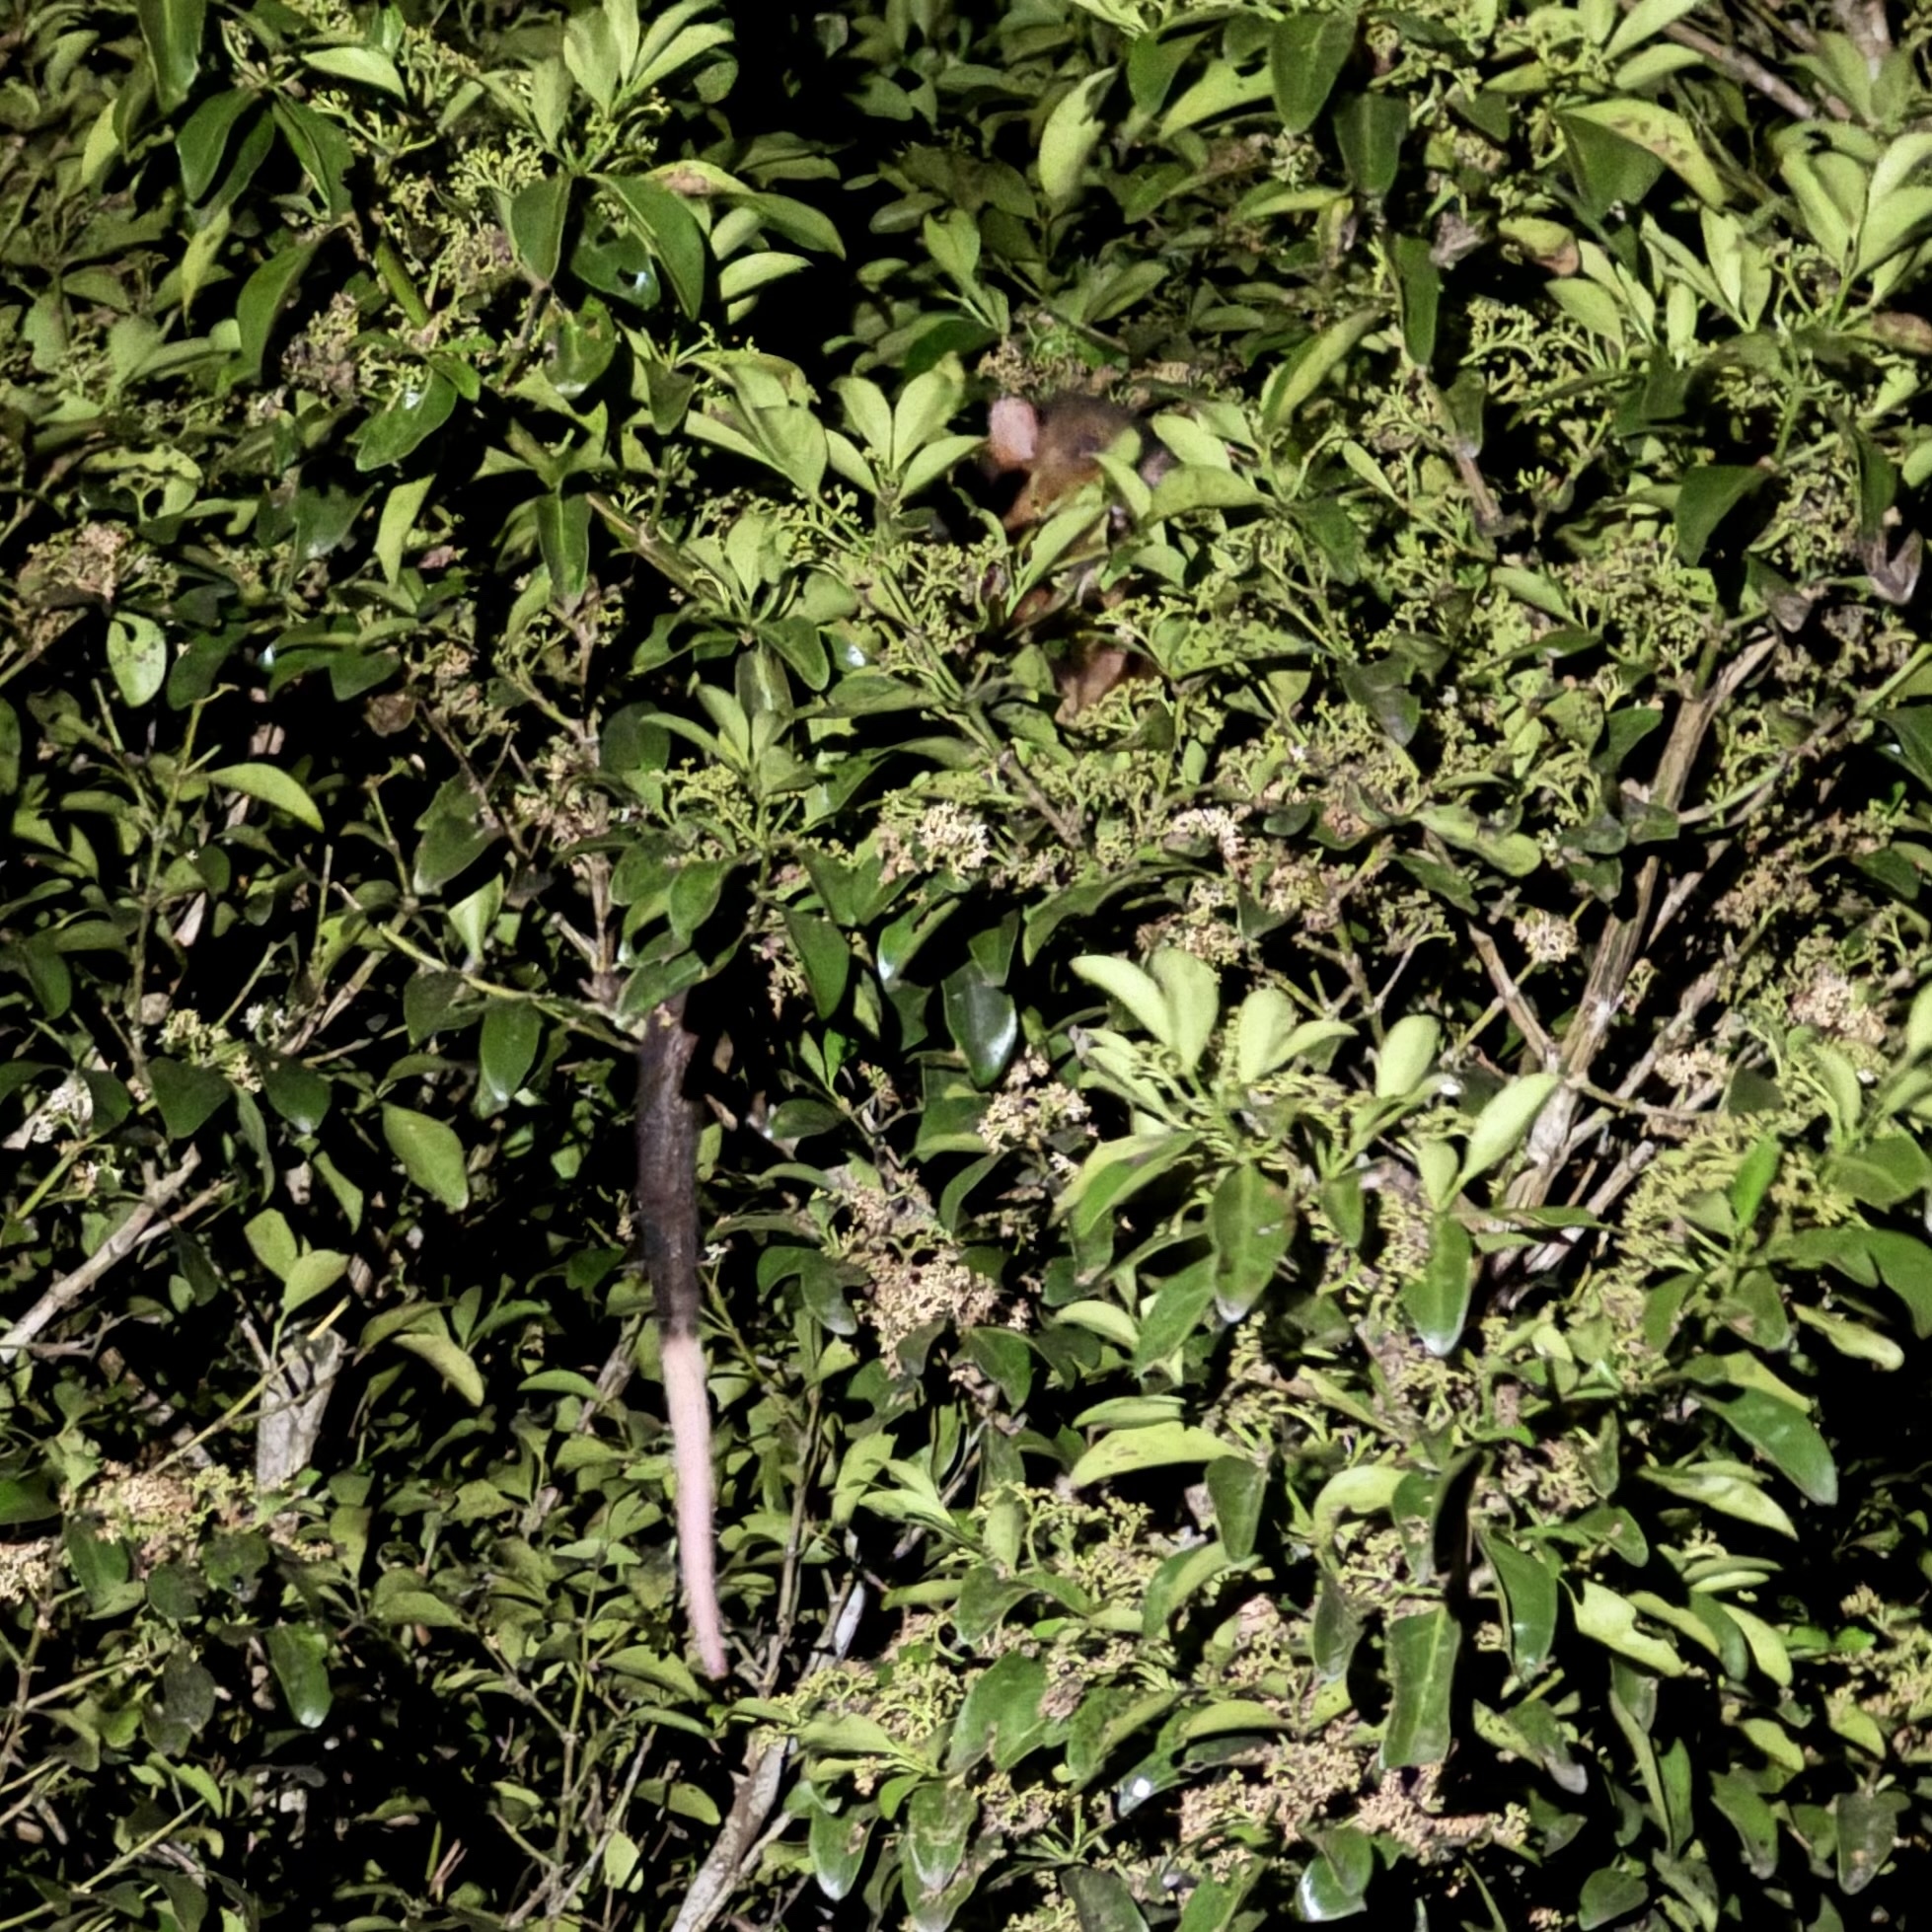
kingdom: Animalia
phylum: Chordata
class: Mammalia
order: Diprotodontia
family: Pseudocheiridae
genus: Pseudocheirus
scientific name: Pseudocheirus peregrinus
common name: Common ringtail possum
